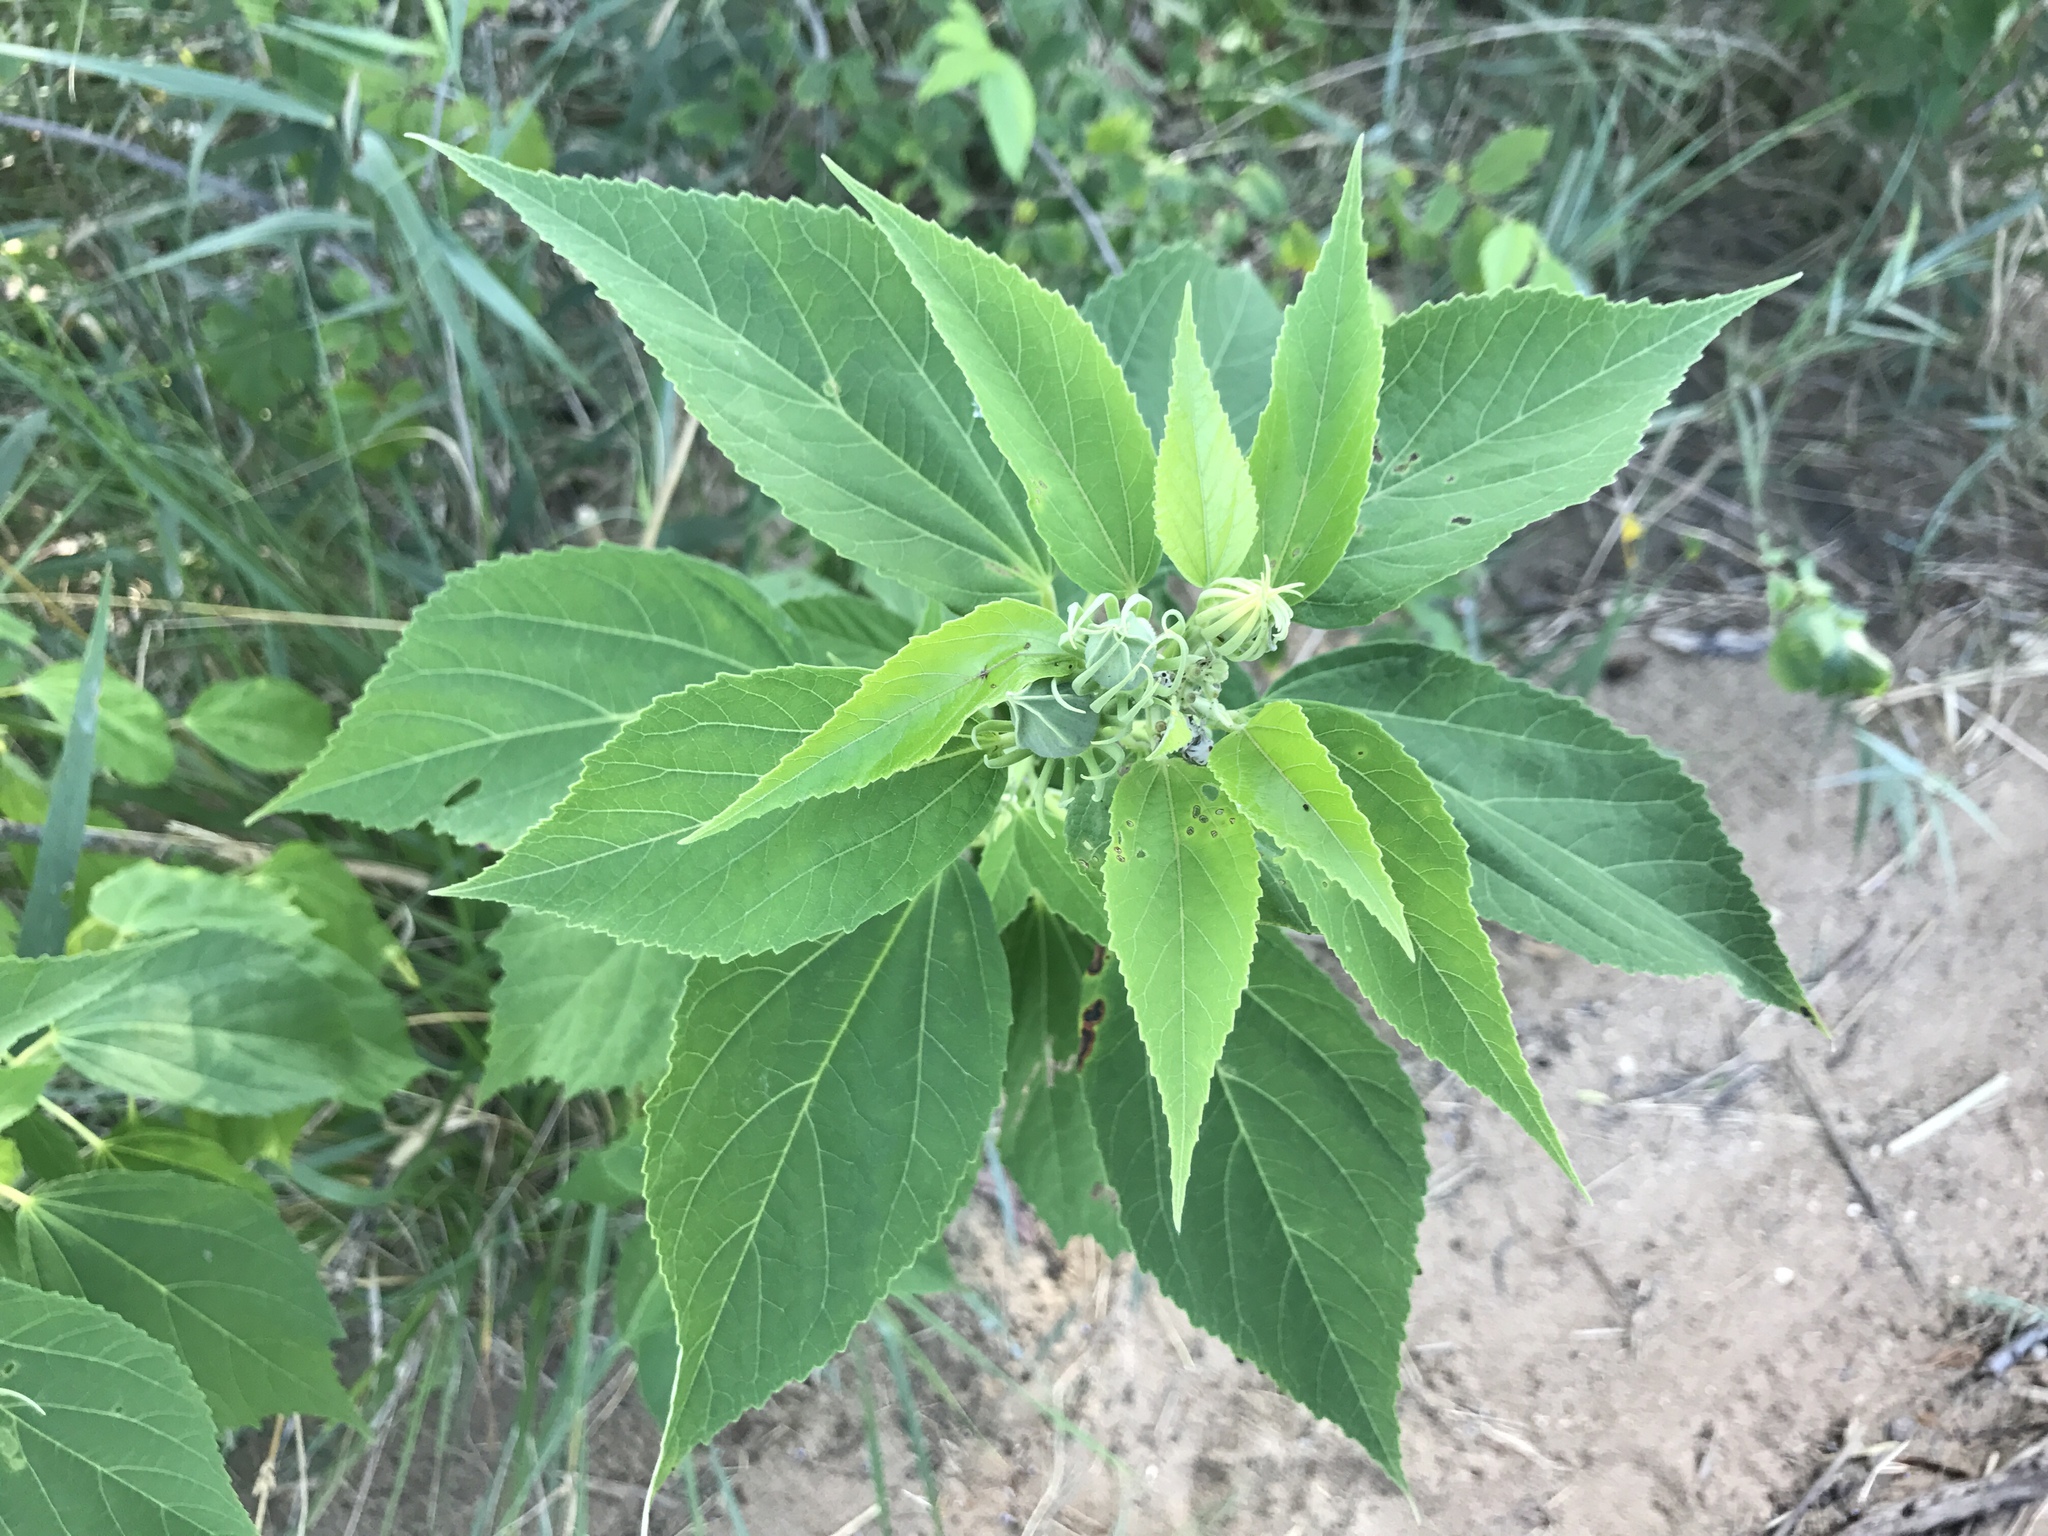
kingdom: Plantae
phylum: Tracheophyta
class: Magnoliopsida
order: Malvales
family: Malvaceae
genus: Hibiscus
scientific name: Hibiscus moscheutos
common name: Common rose-mallow
